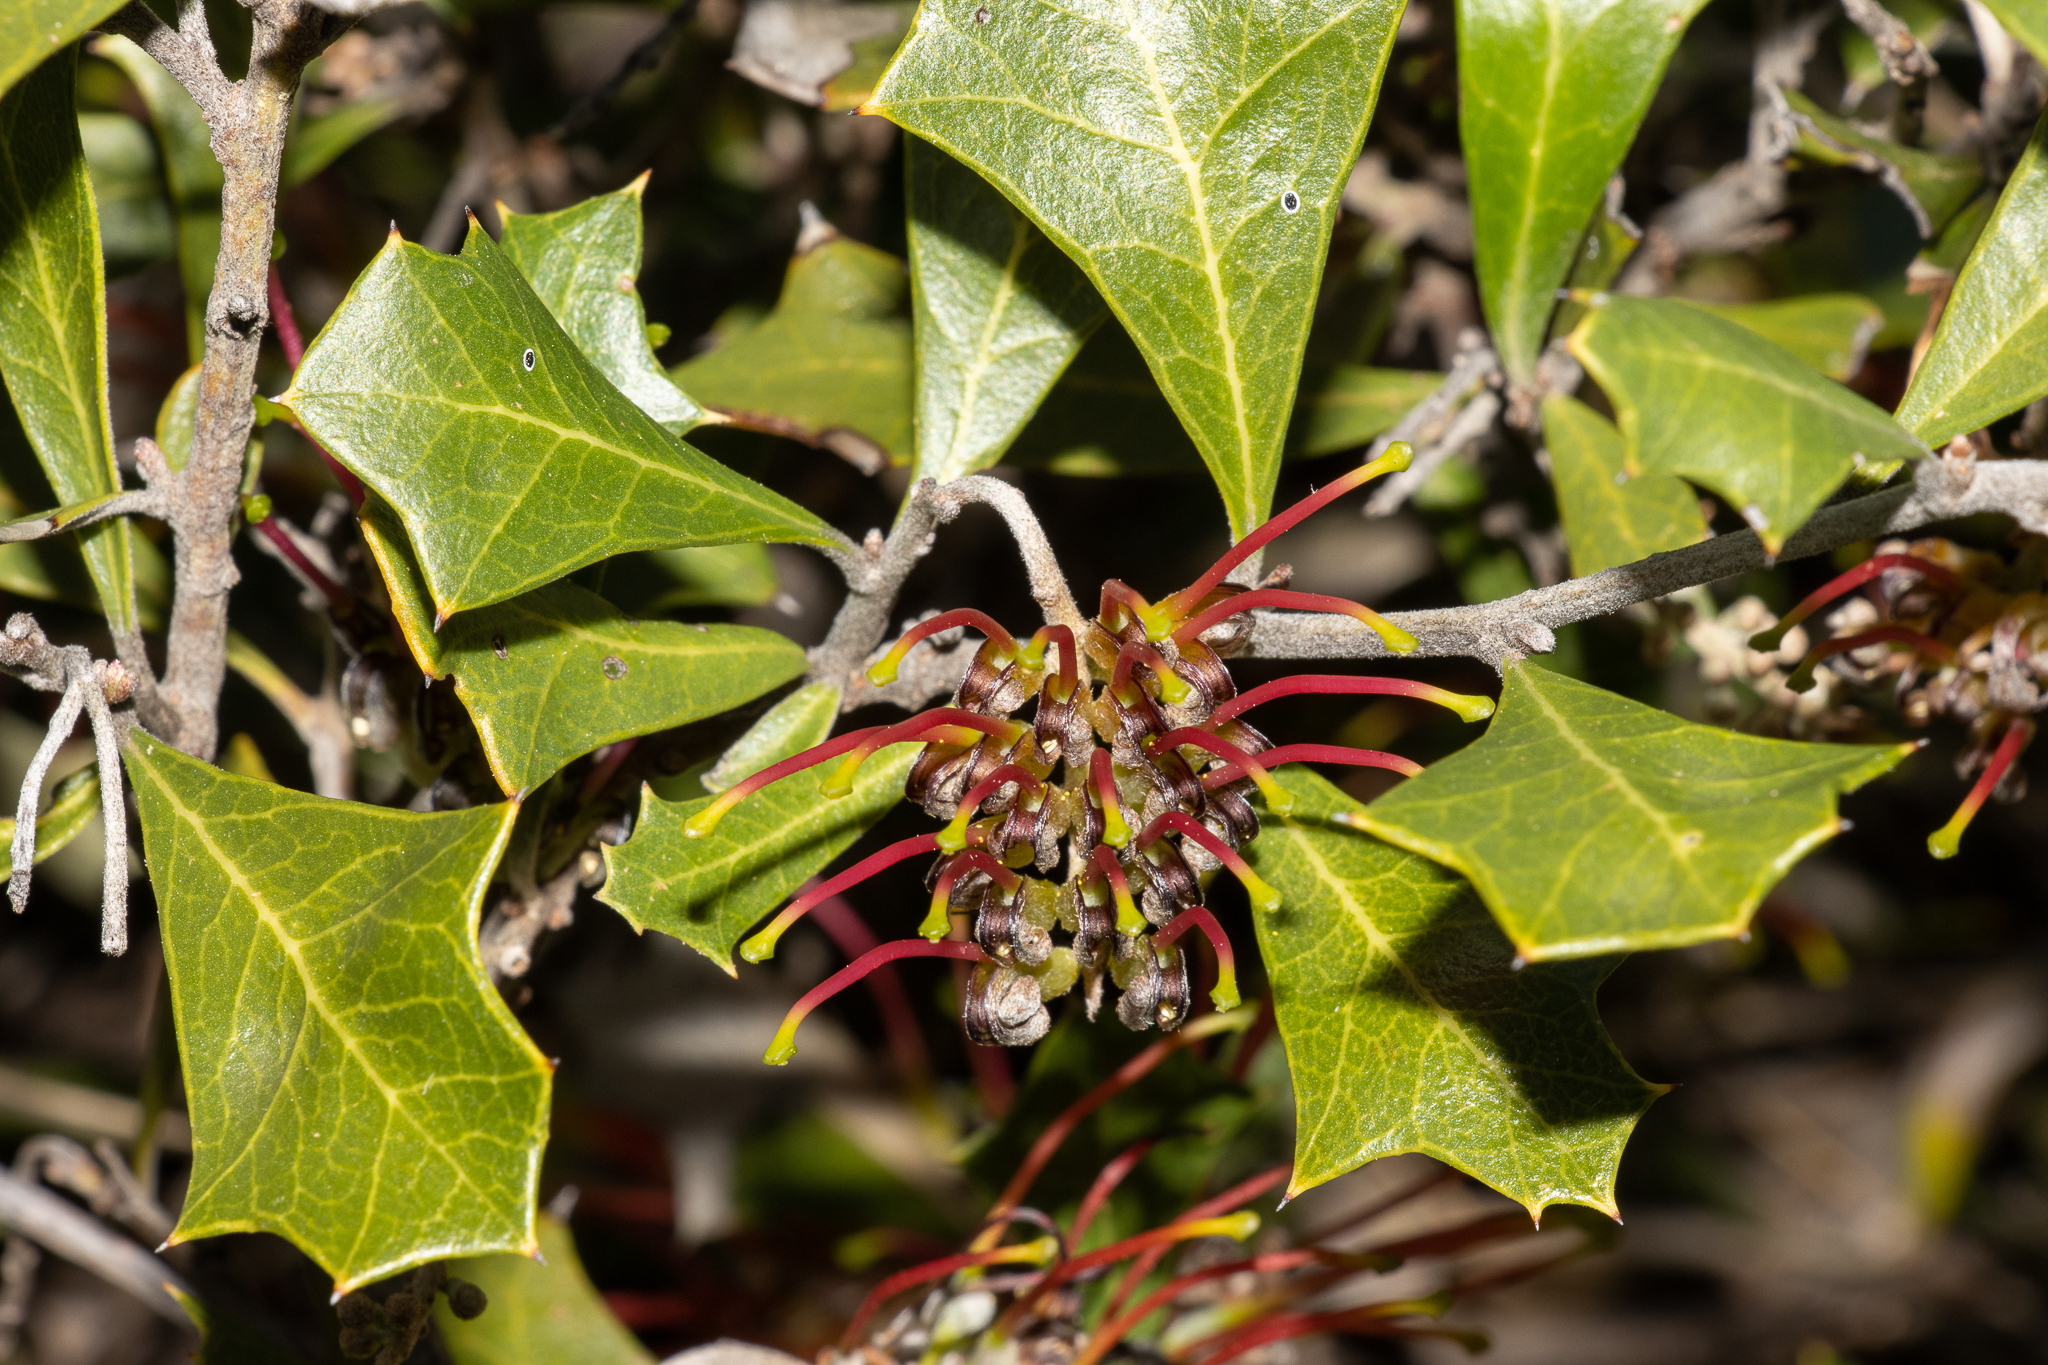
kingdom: Plantae
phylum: Tracheophyta
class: Magnoliopsida
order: Proteales
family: Proteaceae
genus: Grevillea
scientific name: Grevillea ilicifolia
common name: Holly grevillea
